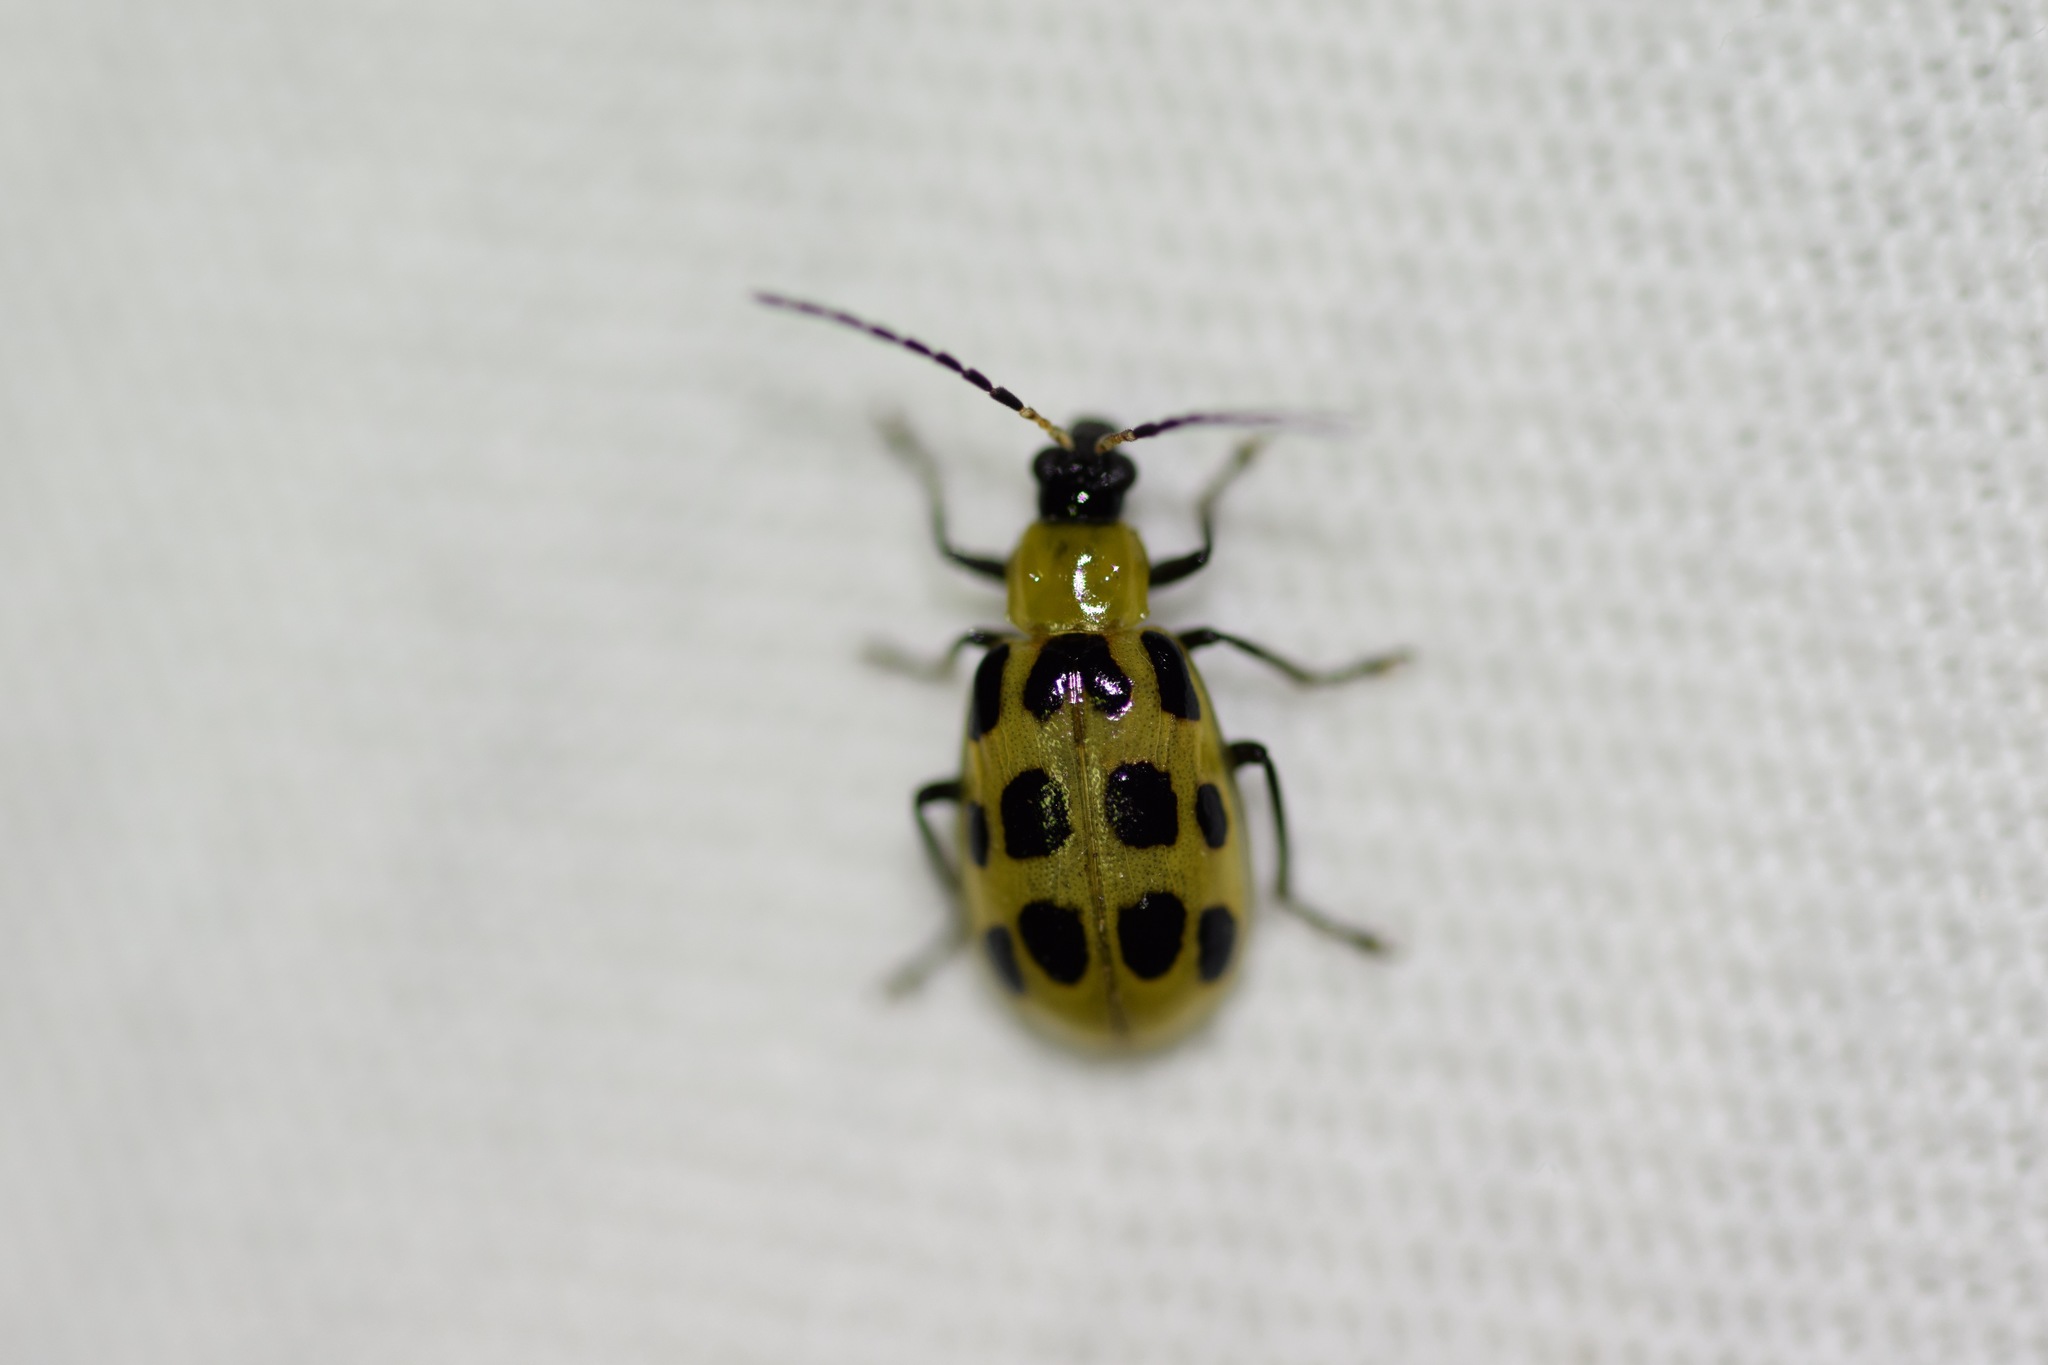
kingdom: Animalia
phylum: Arthropoda
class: Insecta
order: Coleoptera
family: Chrysomelidae
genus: Diabrotica
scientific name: Diabrotica undecimpunctata
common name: Spotted cucumber beetle
